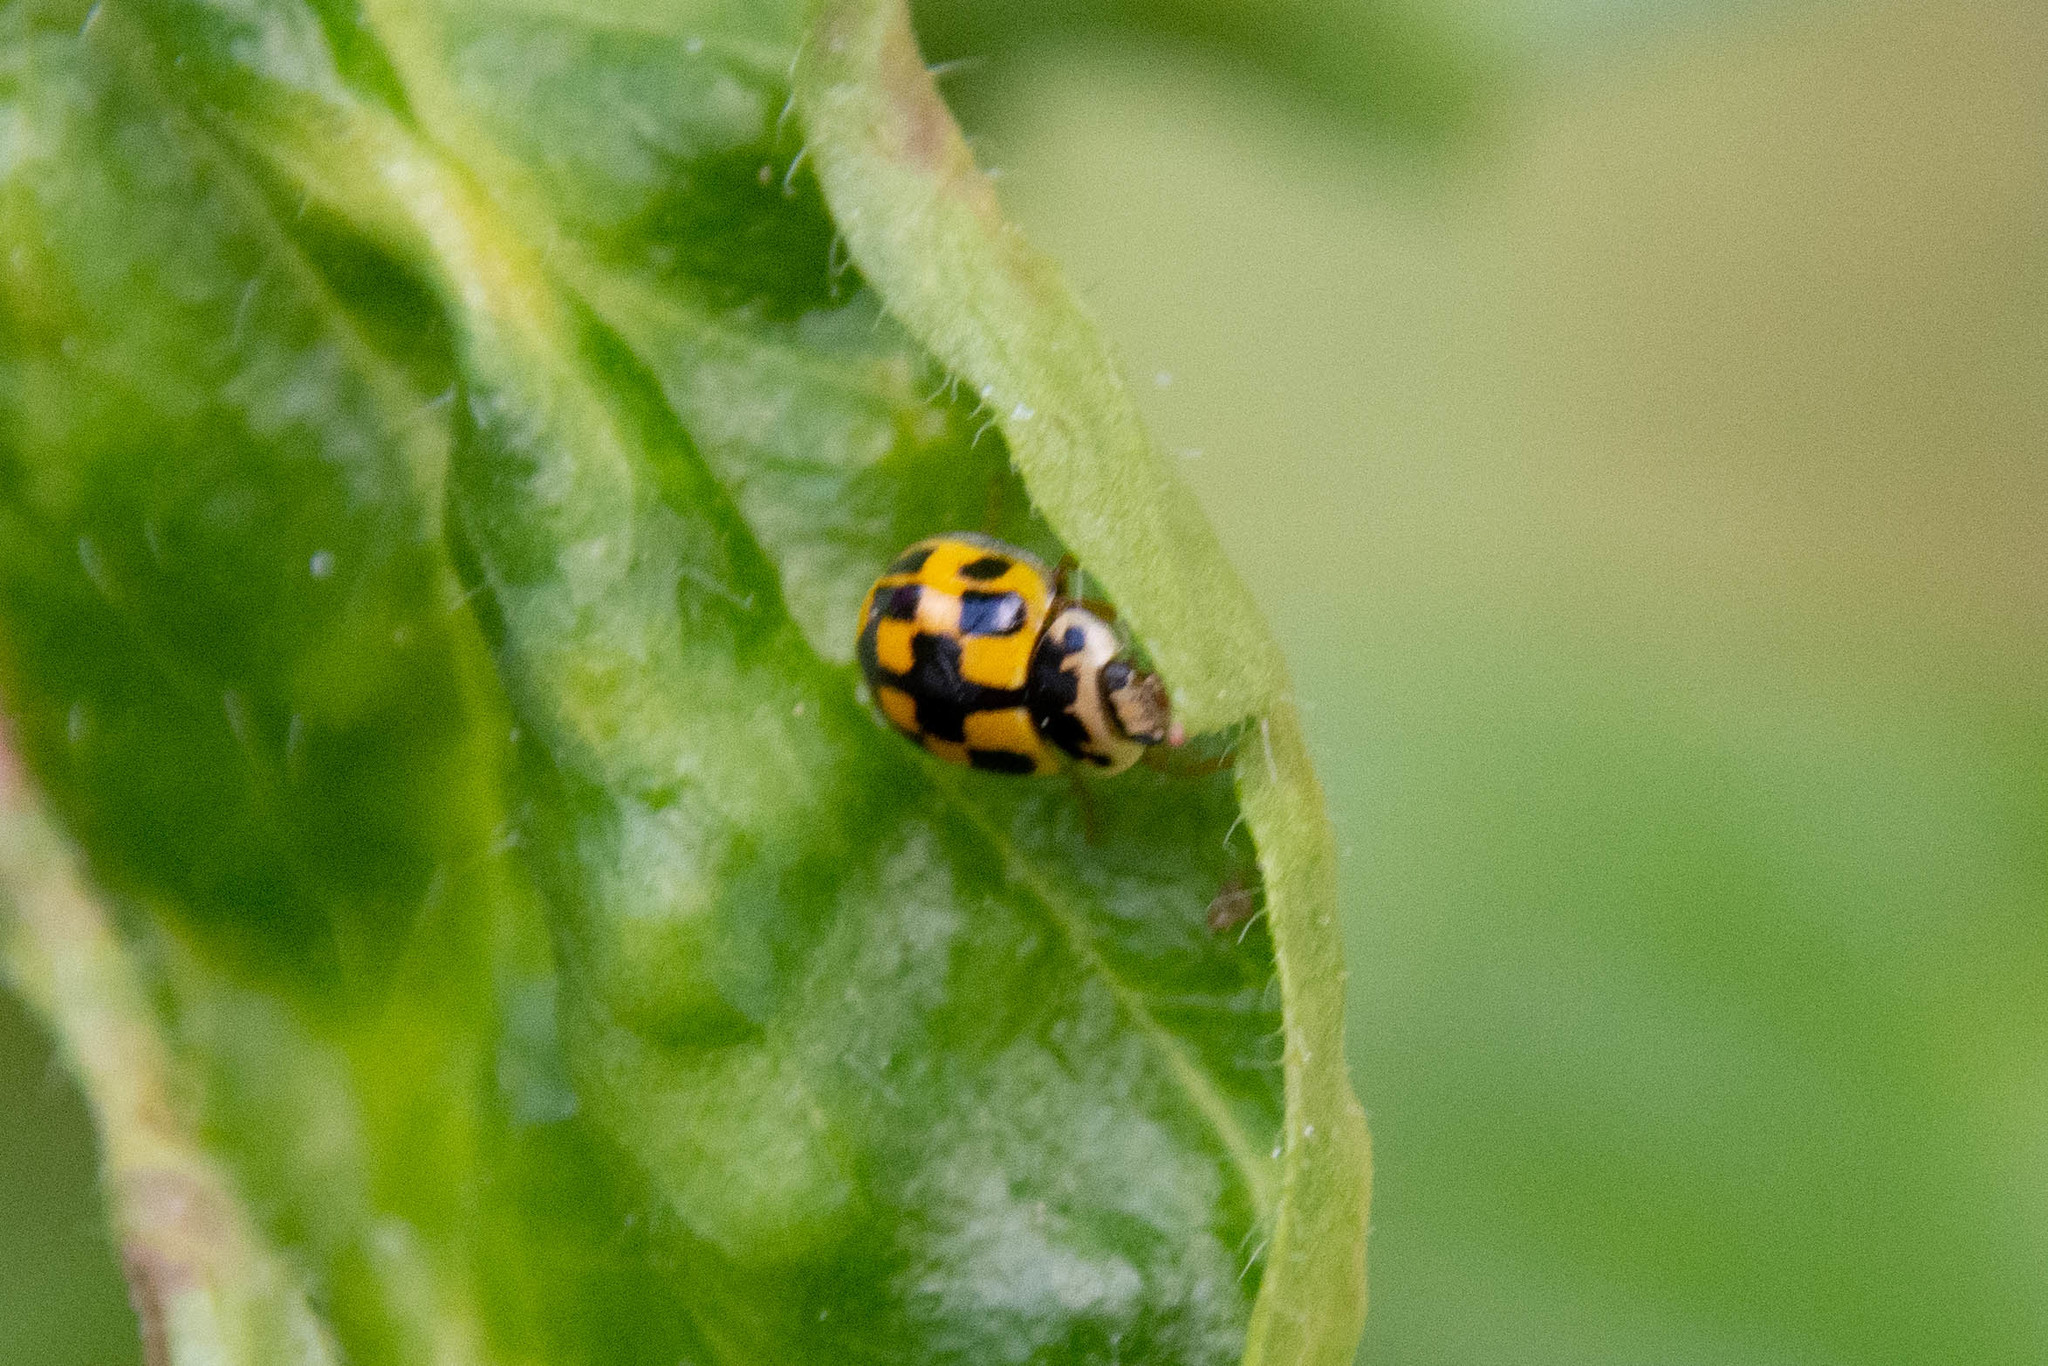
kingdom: Animalia
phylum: Arthropoda
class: Insecta
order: Coleoptera
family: Coccinellidae
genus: Propylaea
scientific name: Propylaea quatuordecimpunctata
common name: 14-spotted ladybird beetle
